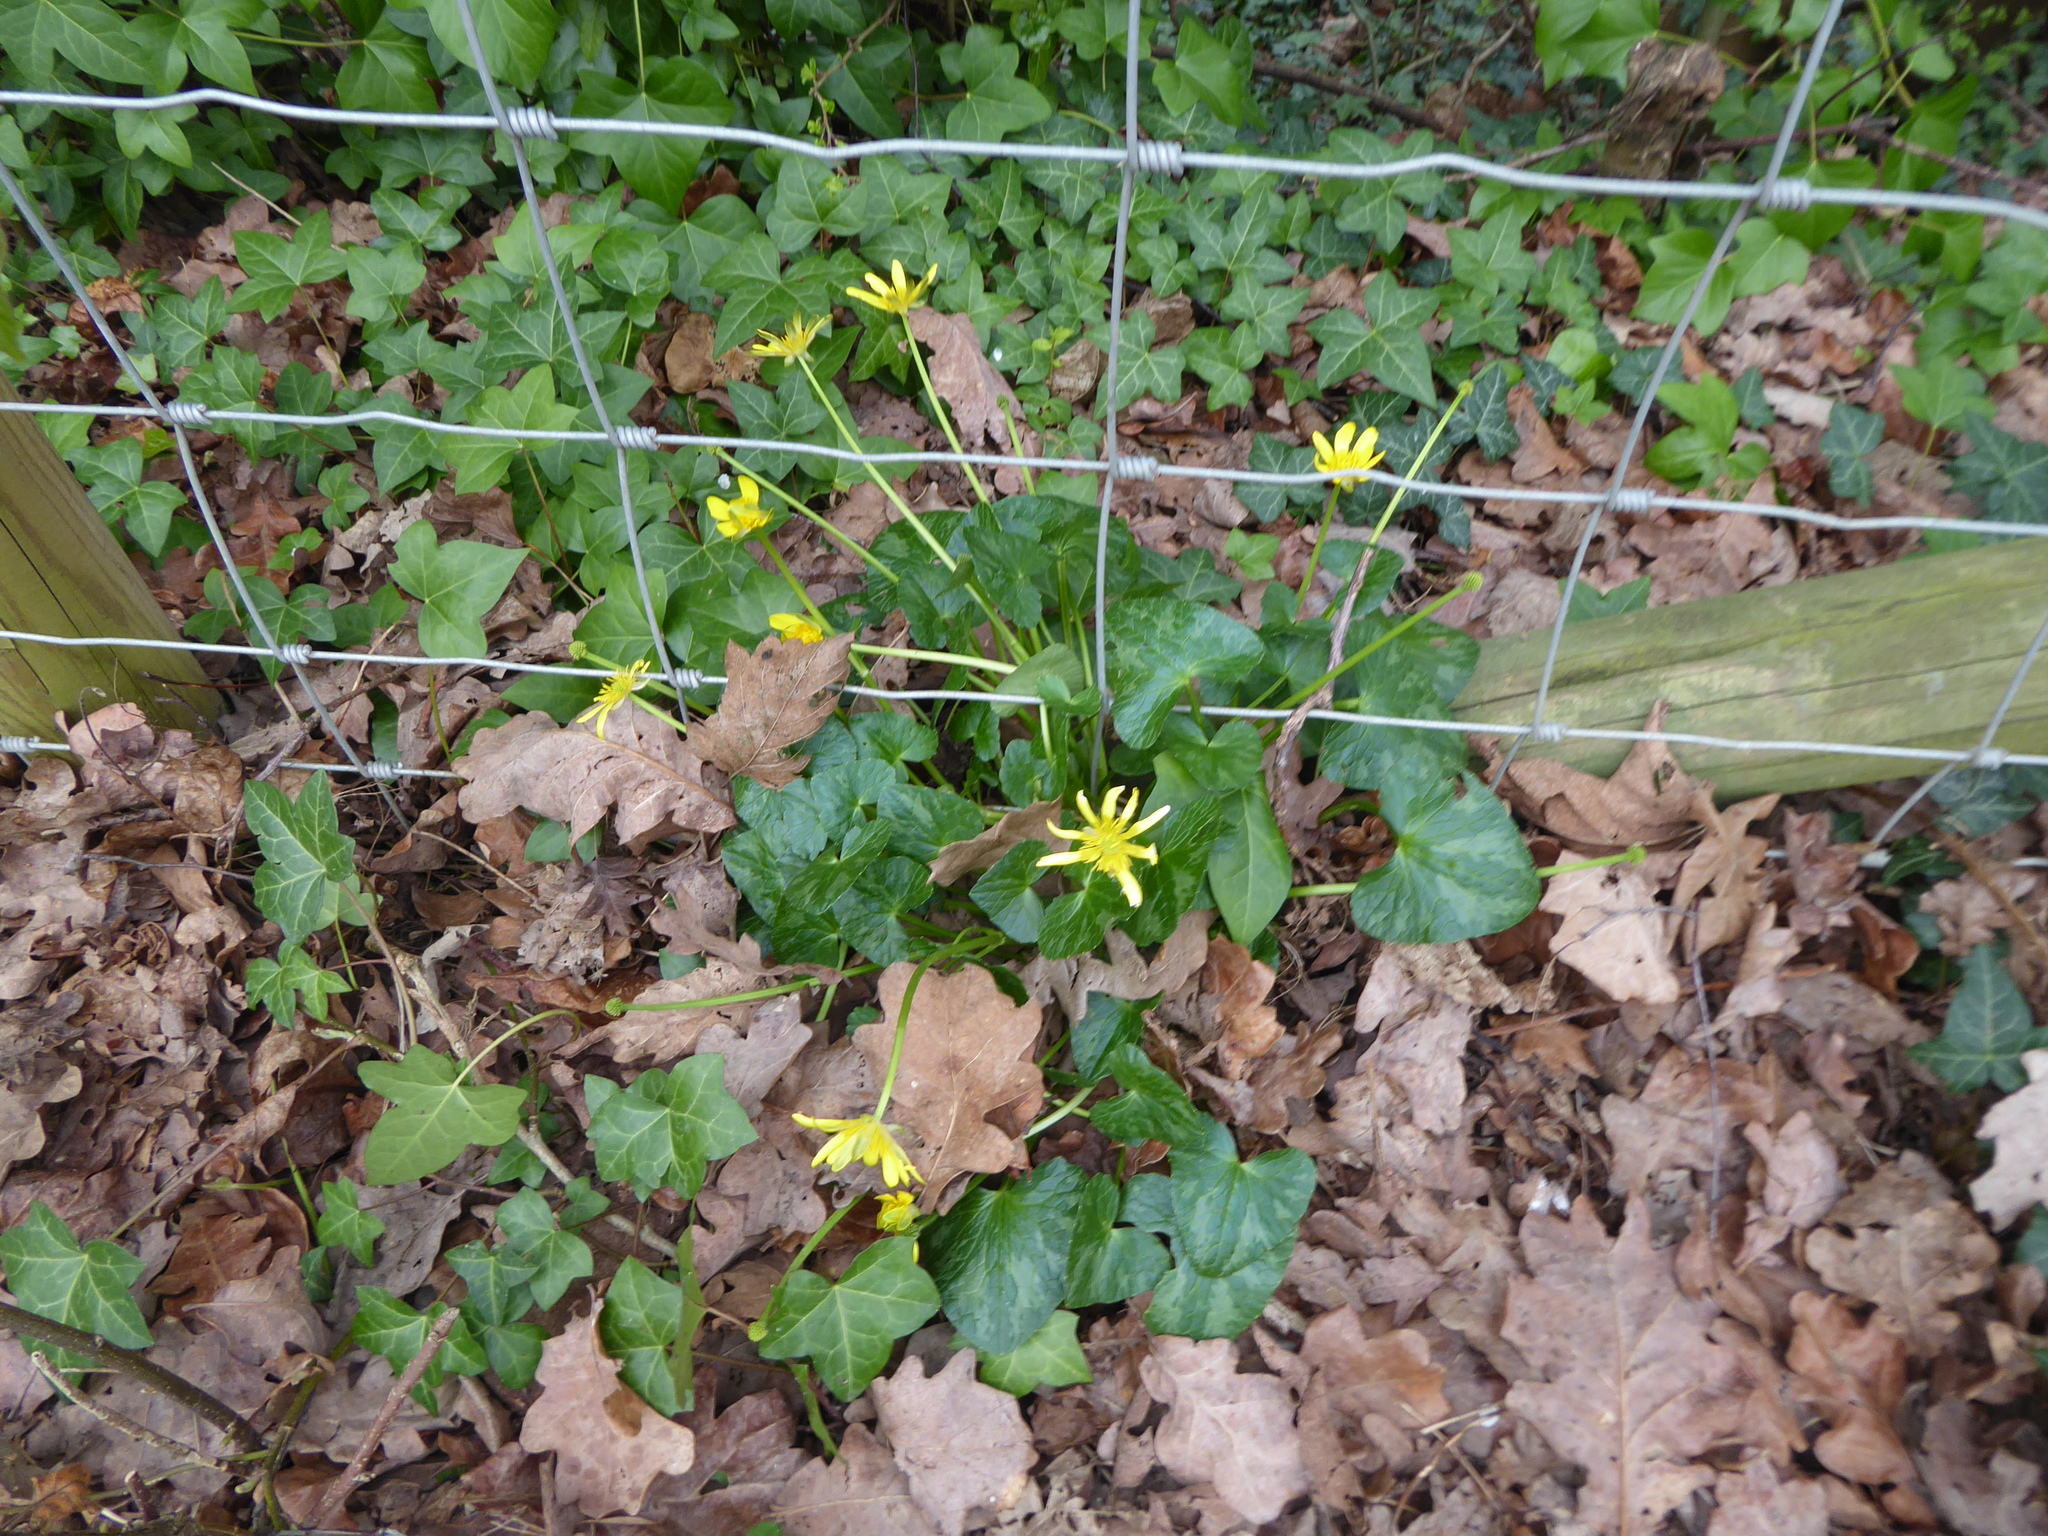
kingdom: Plantae
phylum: Tracheophyta
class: Magnoliopsida
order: Ranunculales
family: Ranunculaceae
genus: Ficaria
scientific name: Ficaria verna
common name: Lesser celandine
